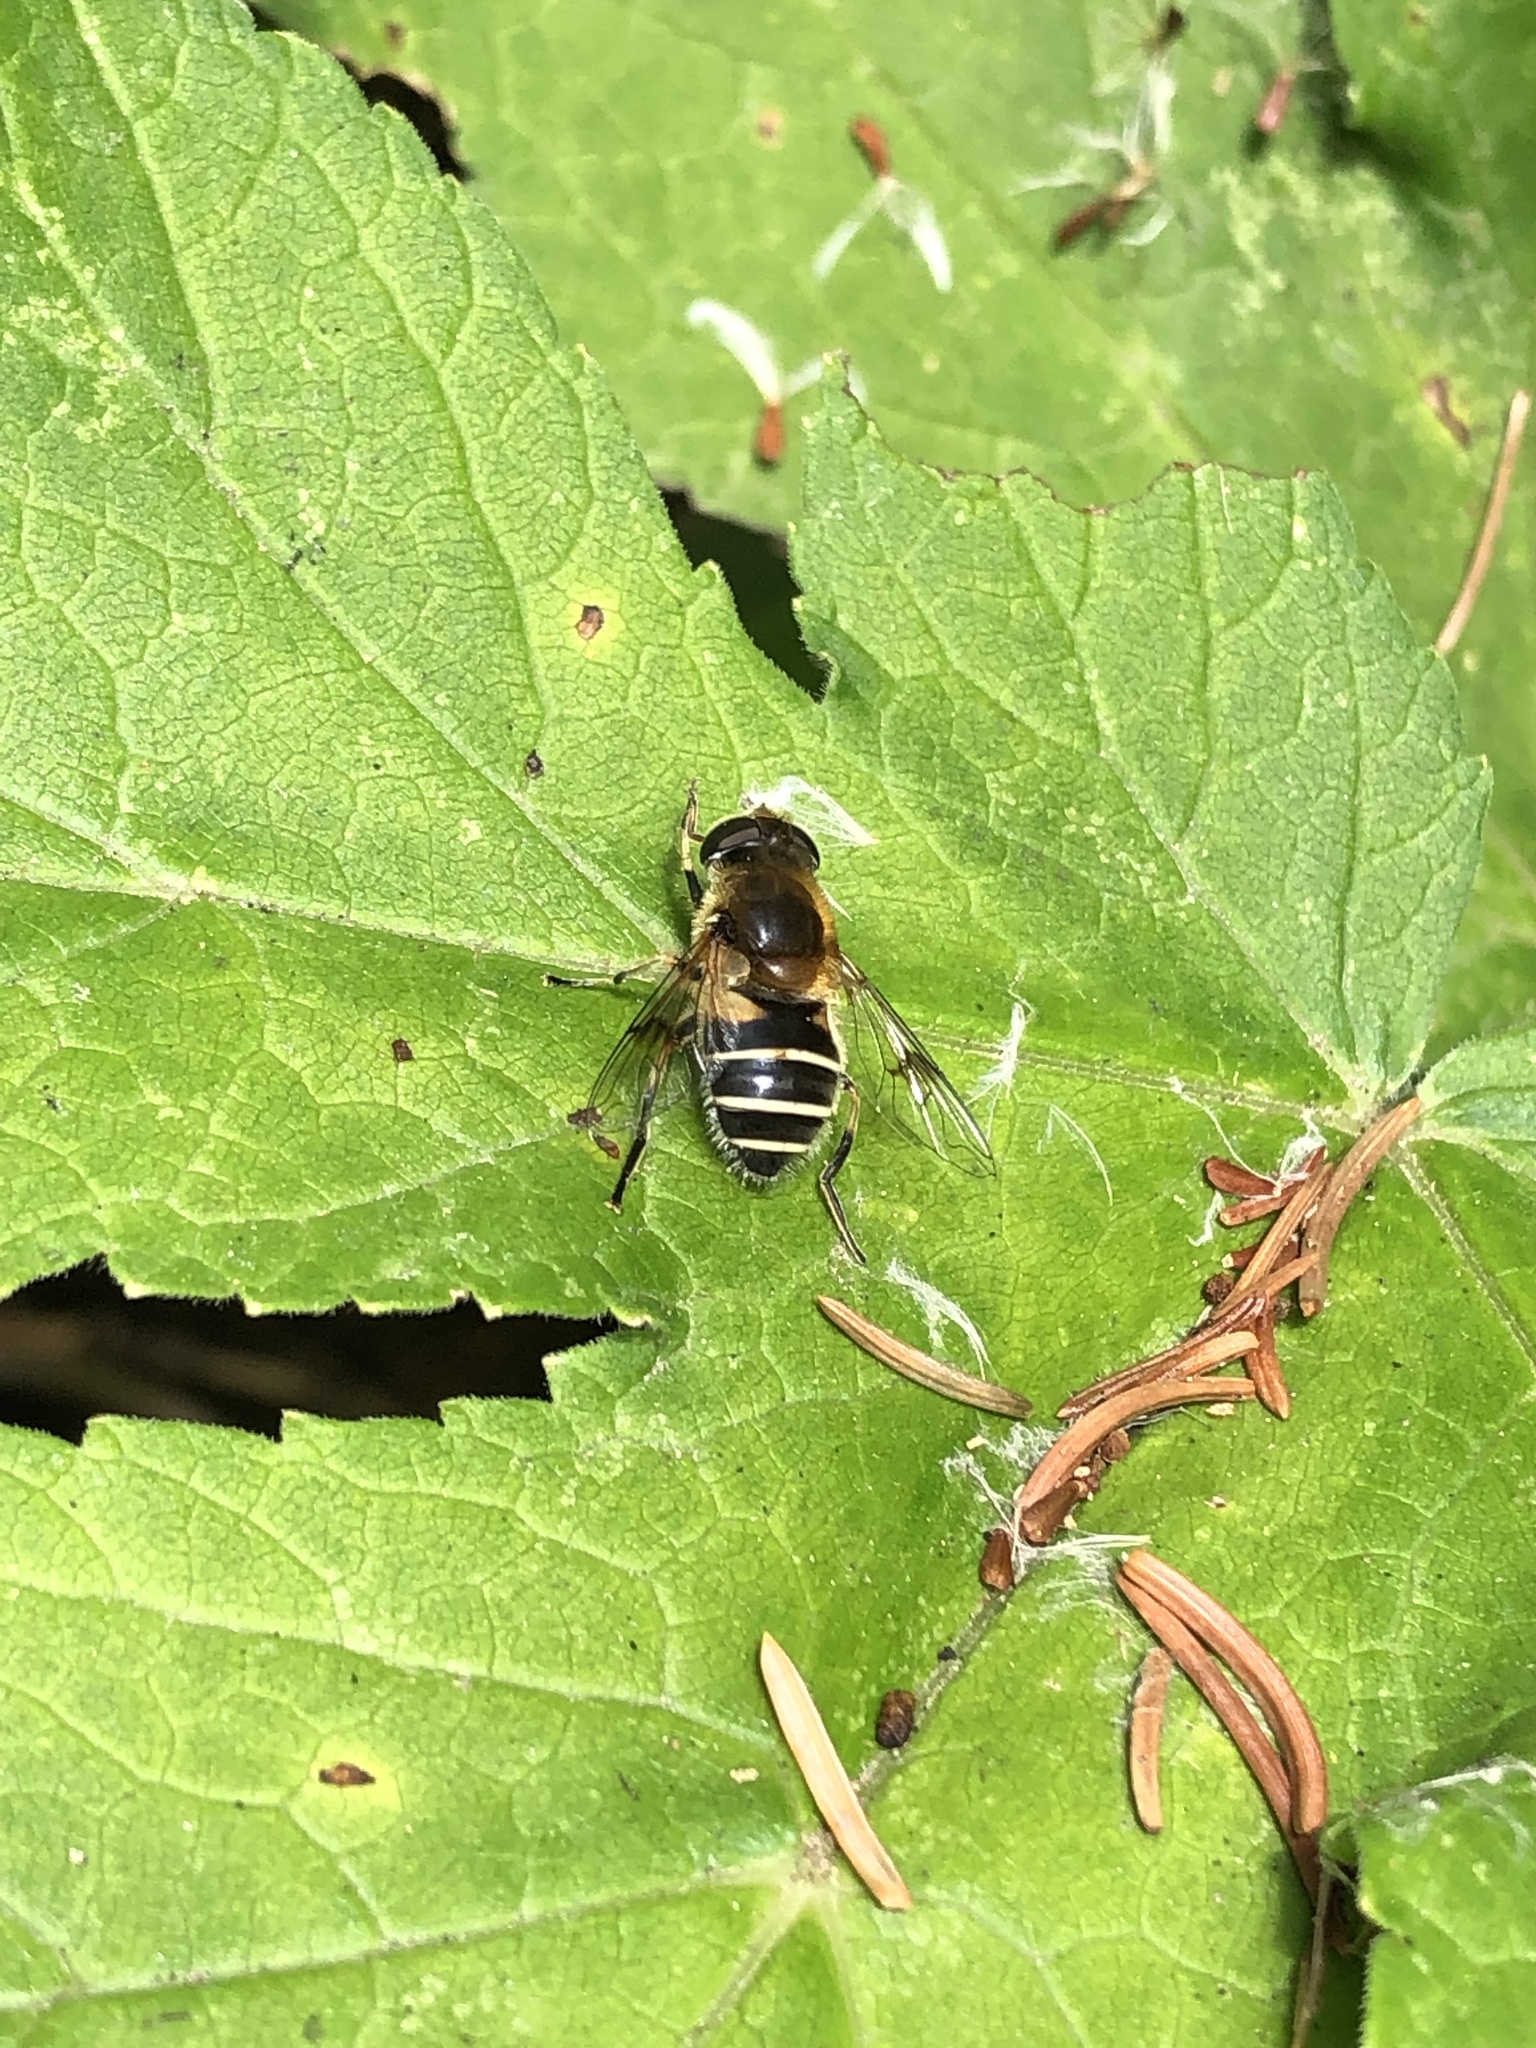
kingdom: Animalia
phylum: Arthropoda
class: Insecta
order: Diptera
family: Syrphidae
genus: Eristalis
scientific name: Eristalis jugorum
